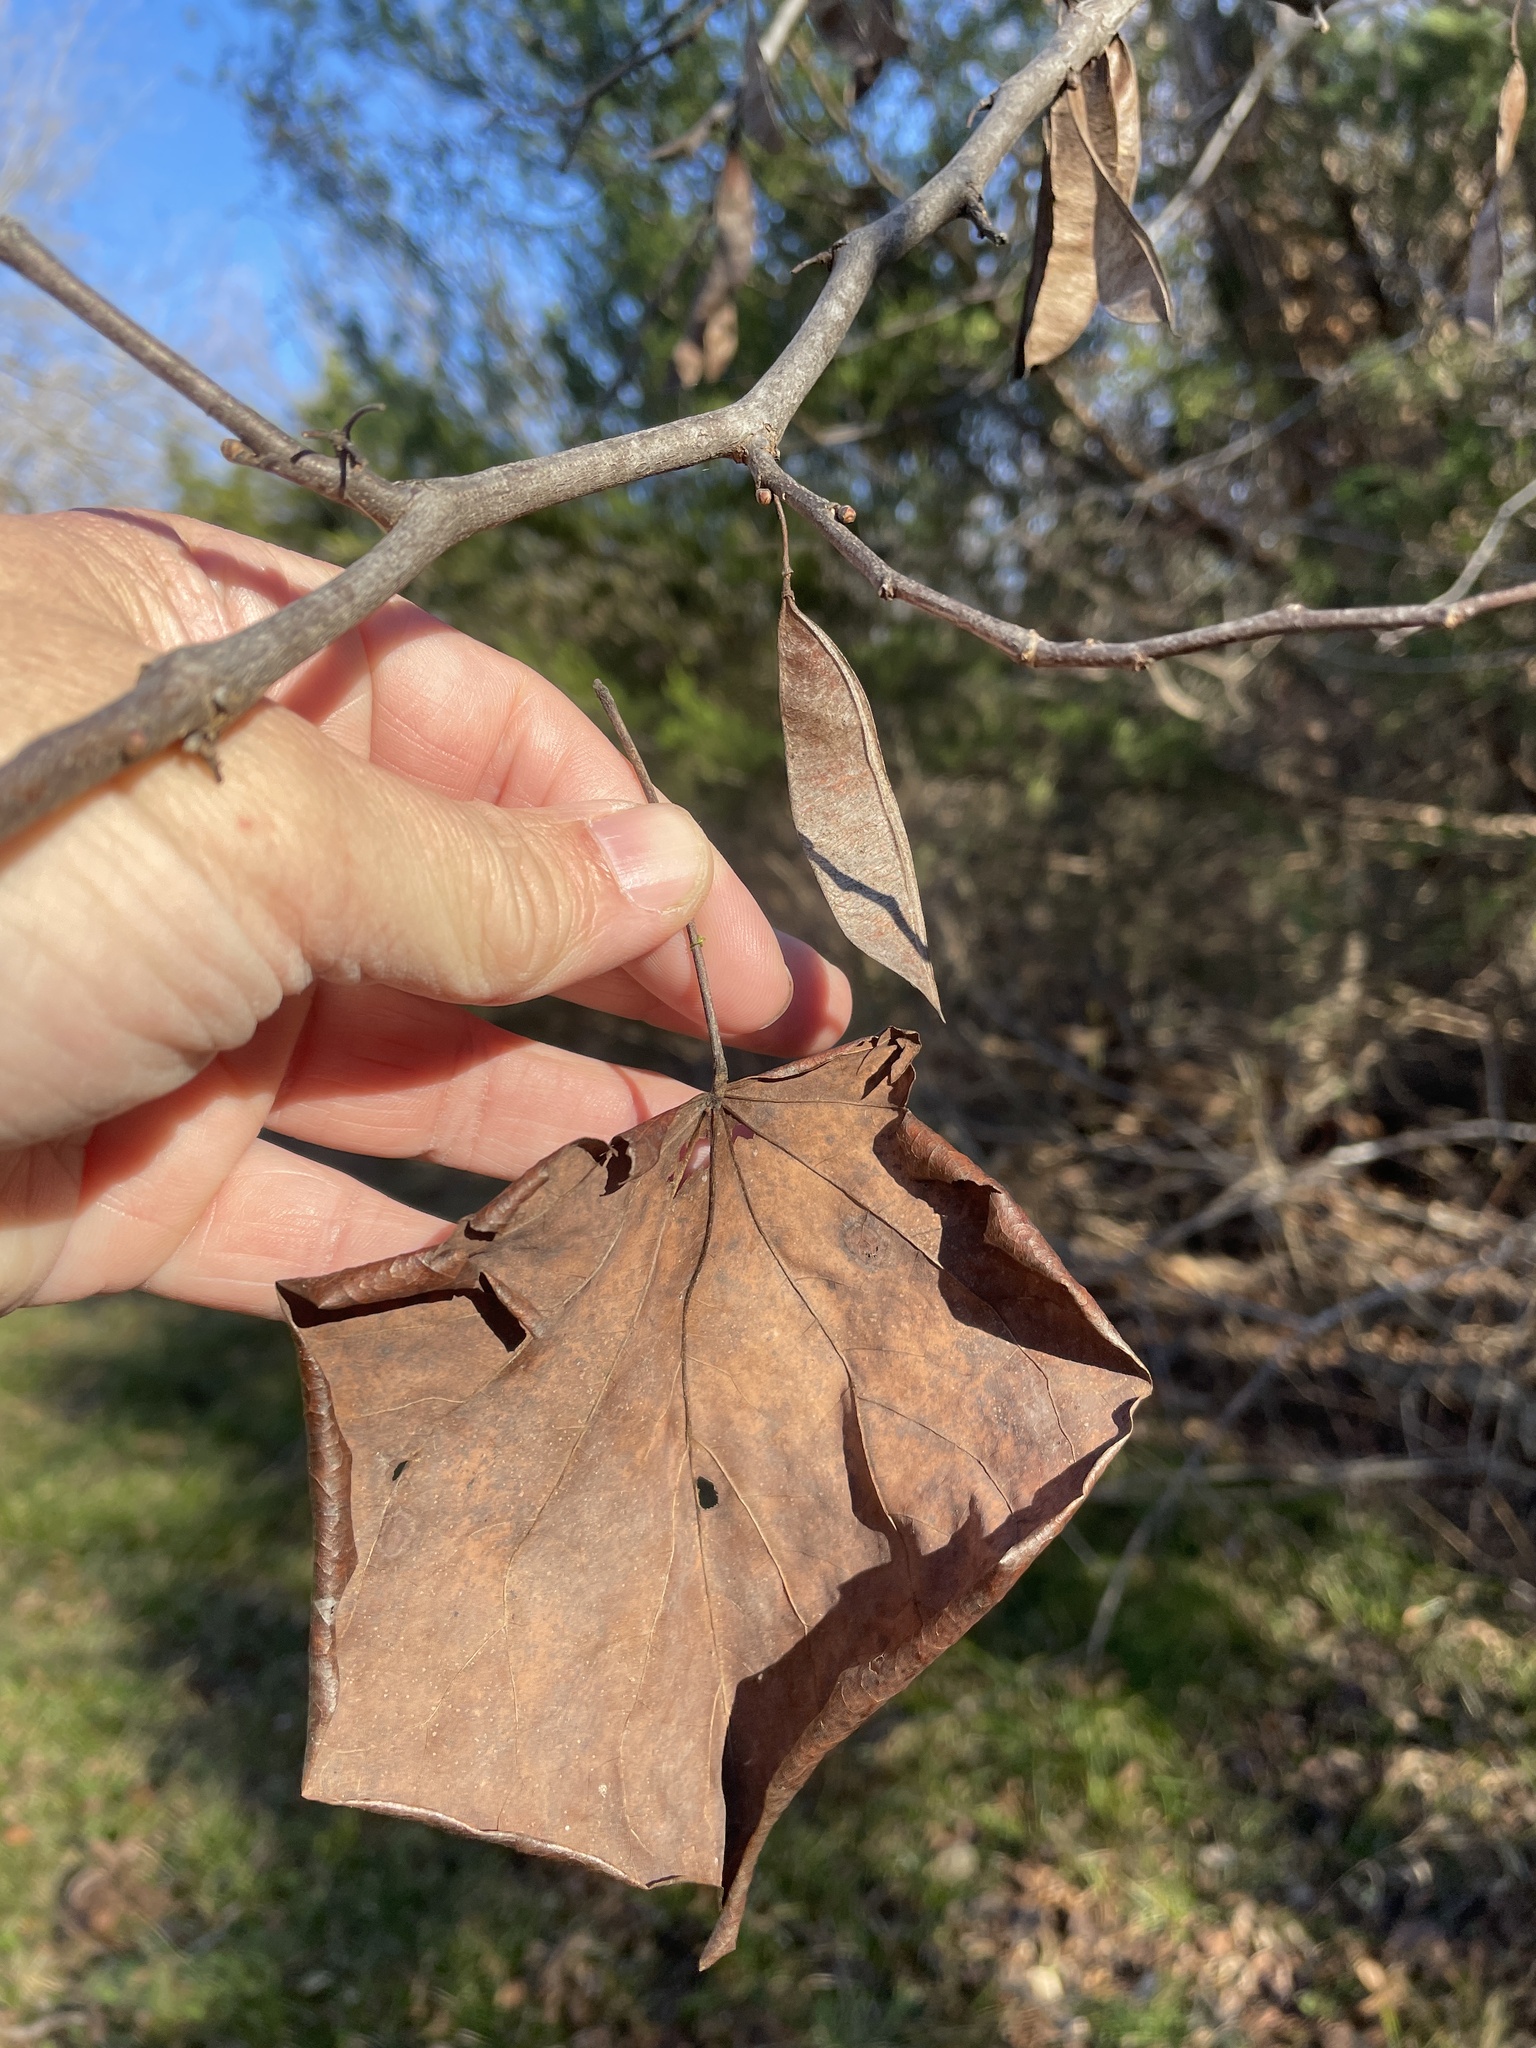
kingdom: Plantae
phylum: Tracheophyta
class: Magnoliopsida
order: Fabales
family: Fabaceae
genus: Cercis
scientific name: Cercis canadensis
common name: Eastern redbud
